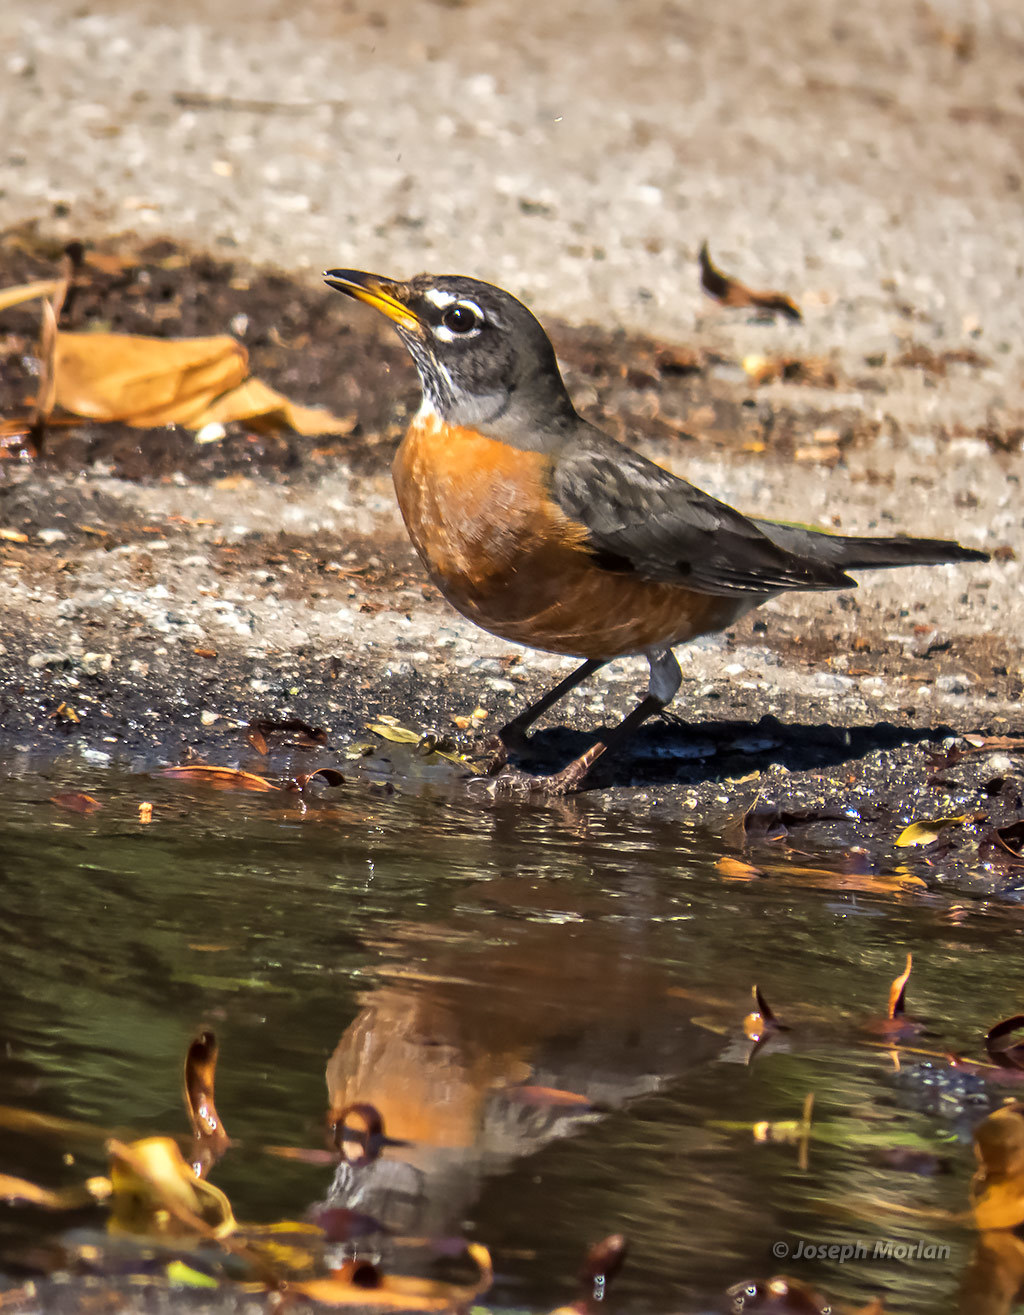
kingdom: Animalia
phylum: Chordata
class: Aves
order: Passeriformes
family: Turdidae
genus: Turdus
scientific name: Turdus migratorius
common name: American robin
